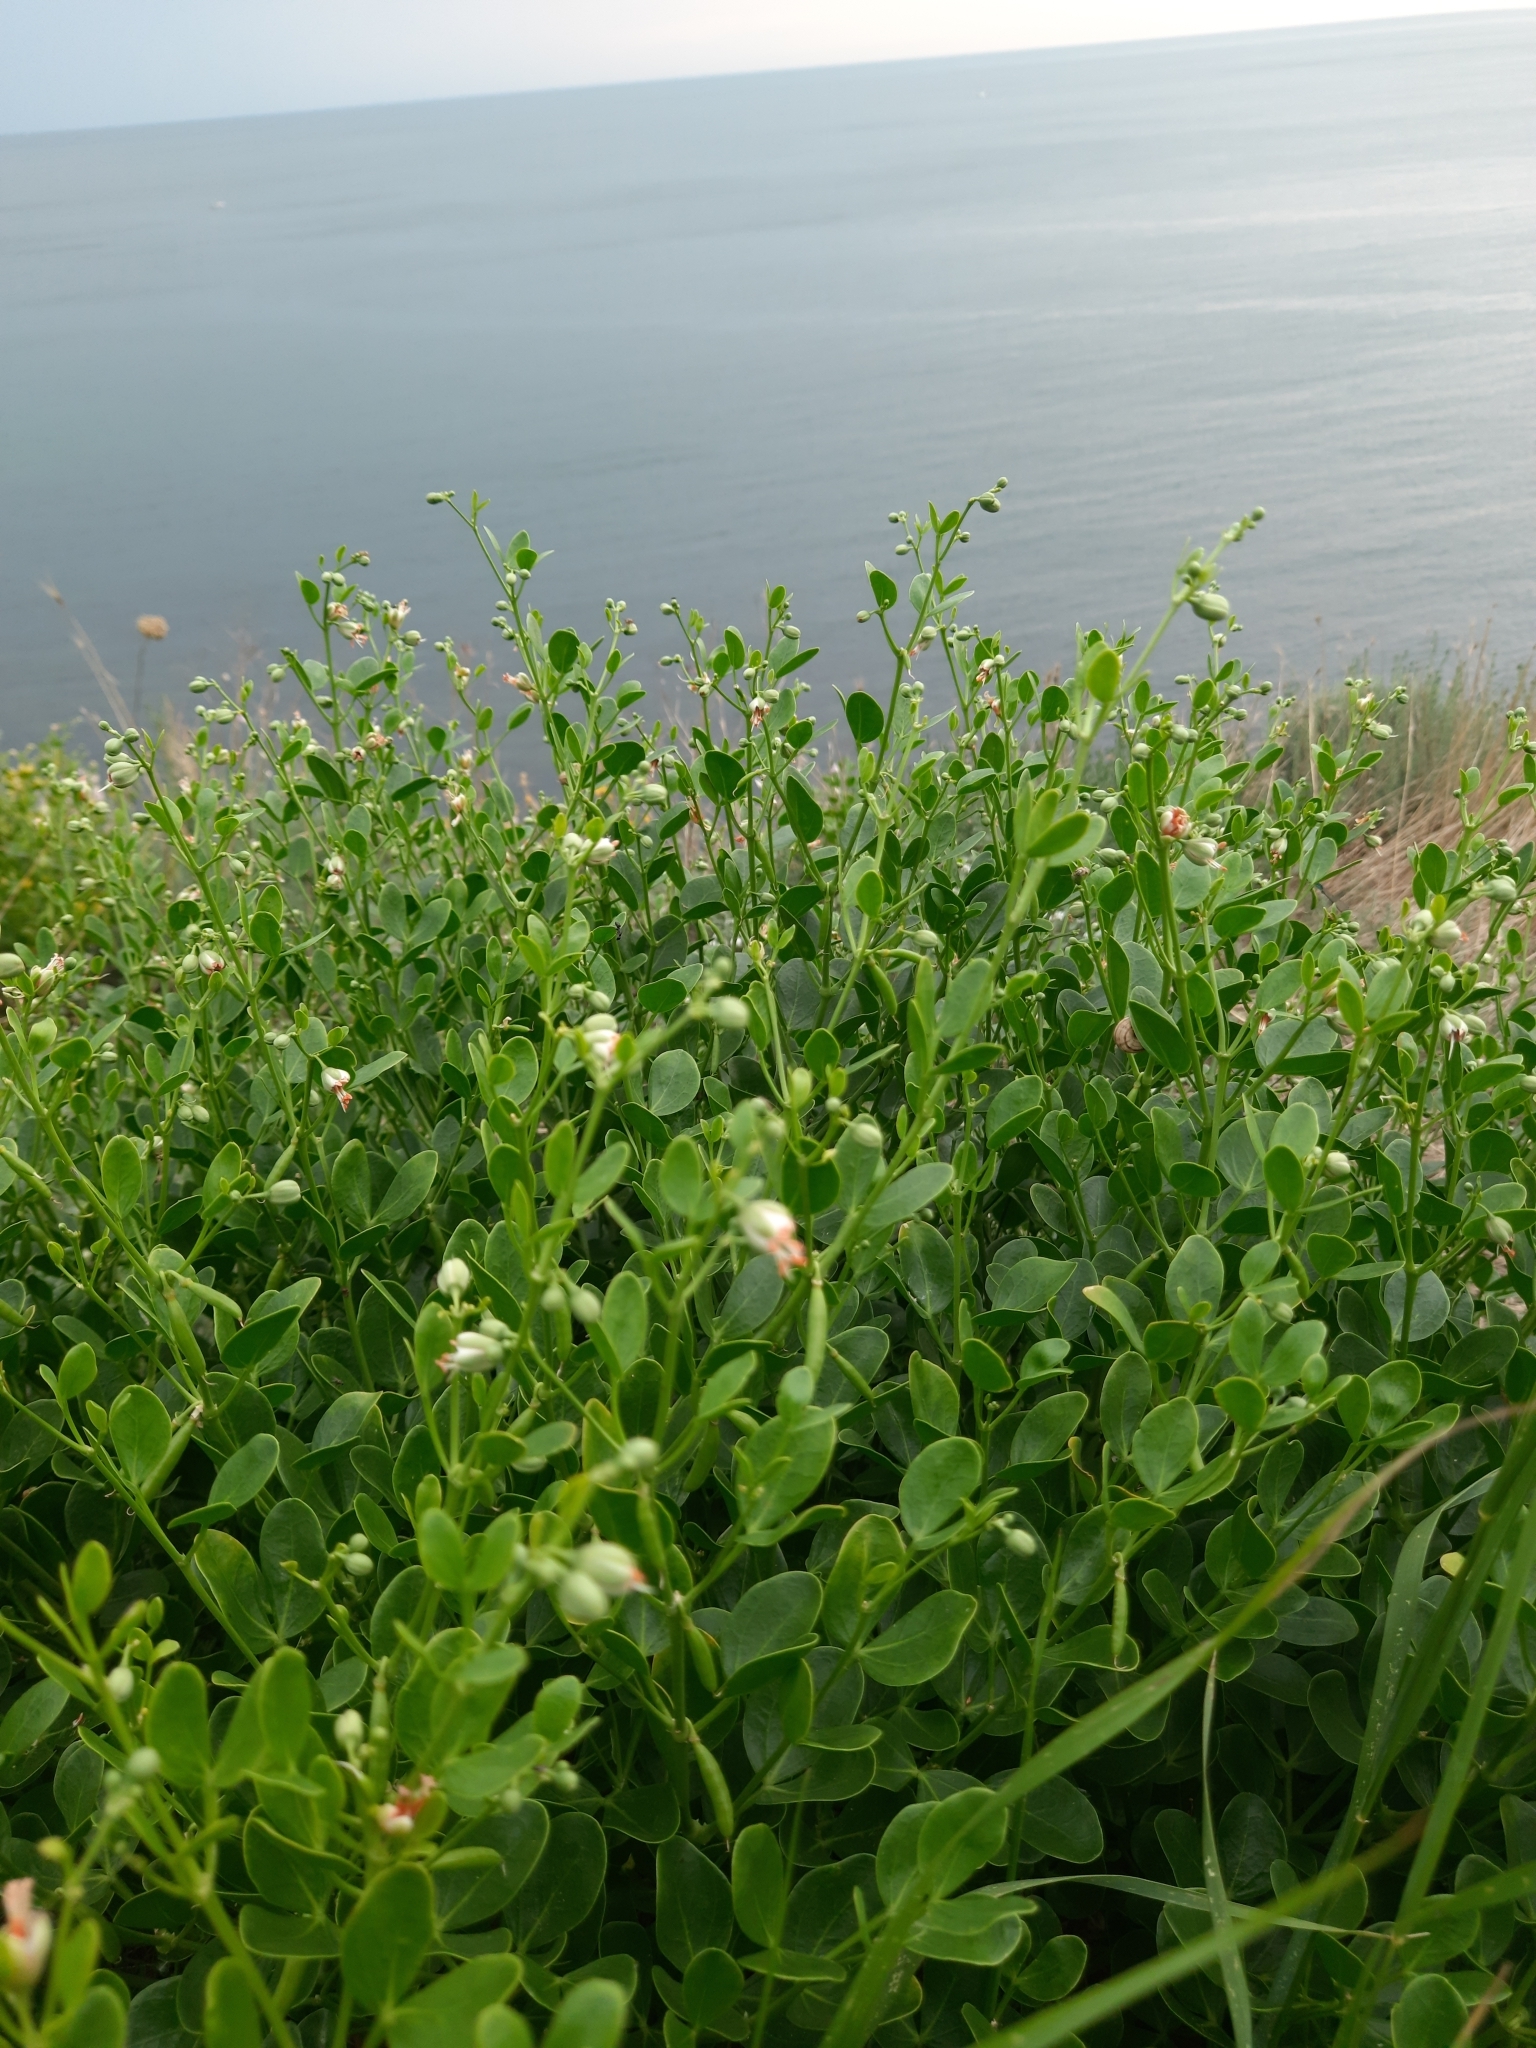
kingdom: Plantae
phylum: Tracheophyta
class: Magnoliopsida
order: Zygophyllales
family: Zygophyllaceae
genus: Zygophyllum
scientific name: Zygophyllum fabago
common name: Syrian beancaper
